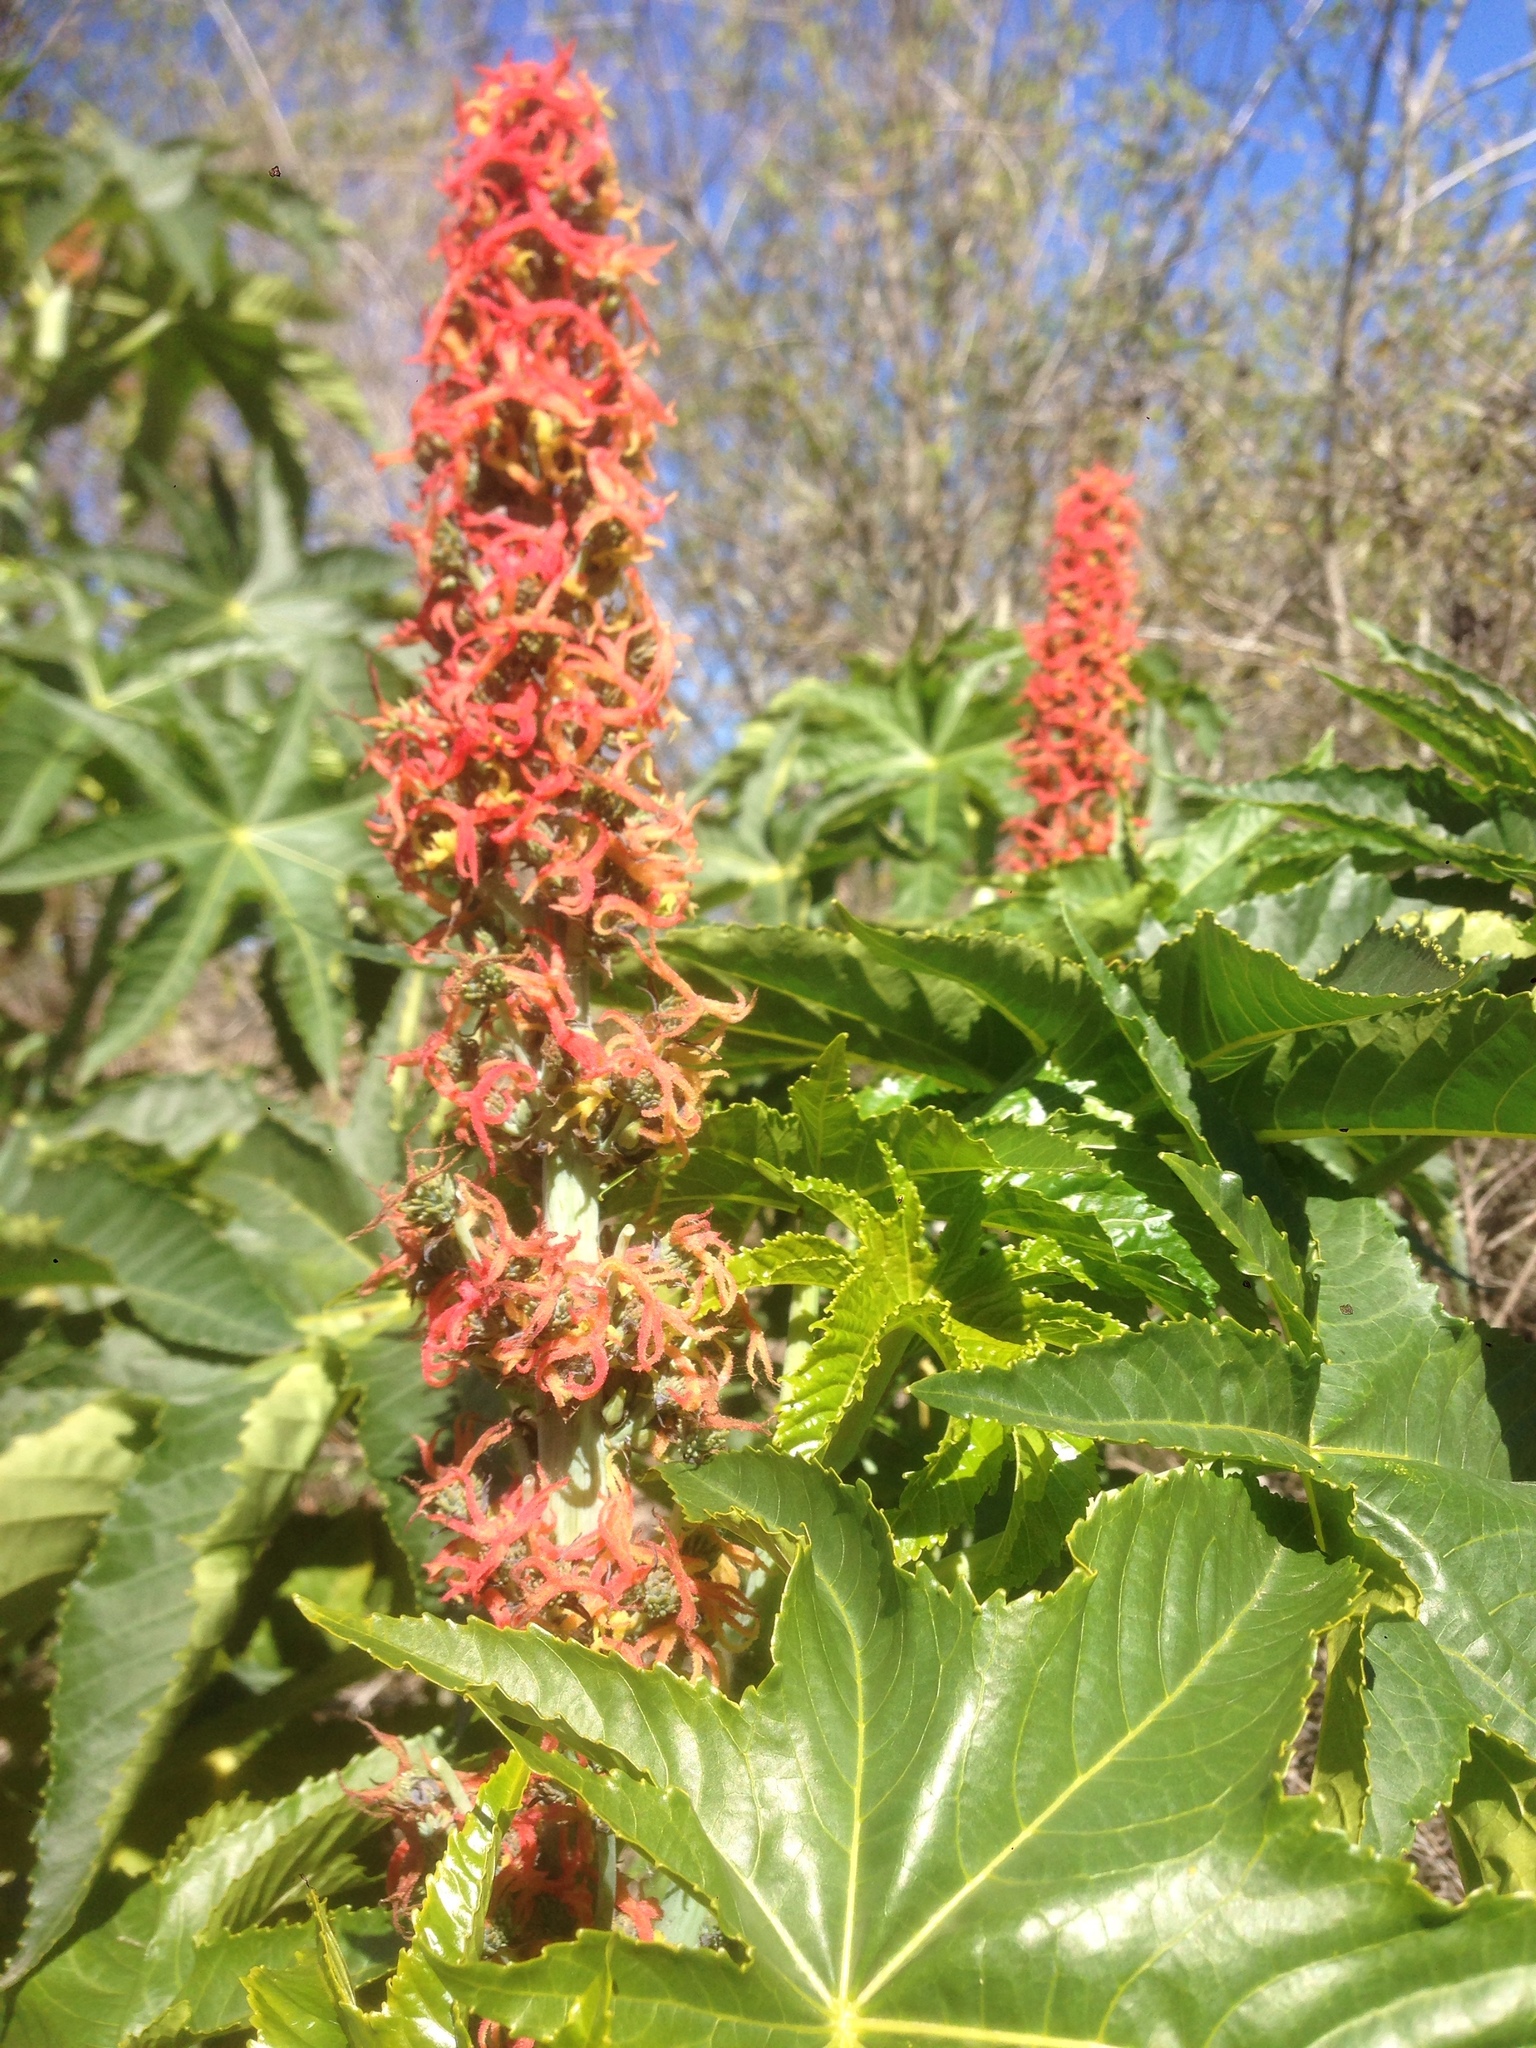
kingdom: Plantae
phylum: Tracheophyta
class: Magnoliopsida
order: Malpighiales
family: Euphorbiaceae
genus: Ricinus
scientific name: Ricinus communis
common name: Castor-oil-plant
